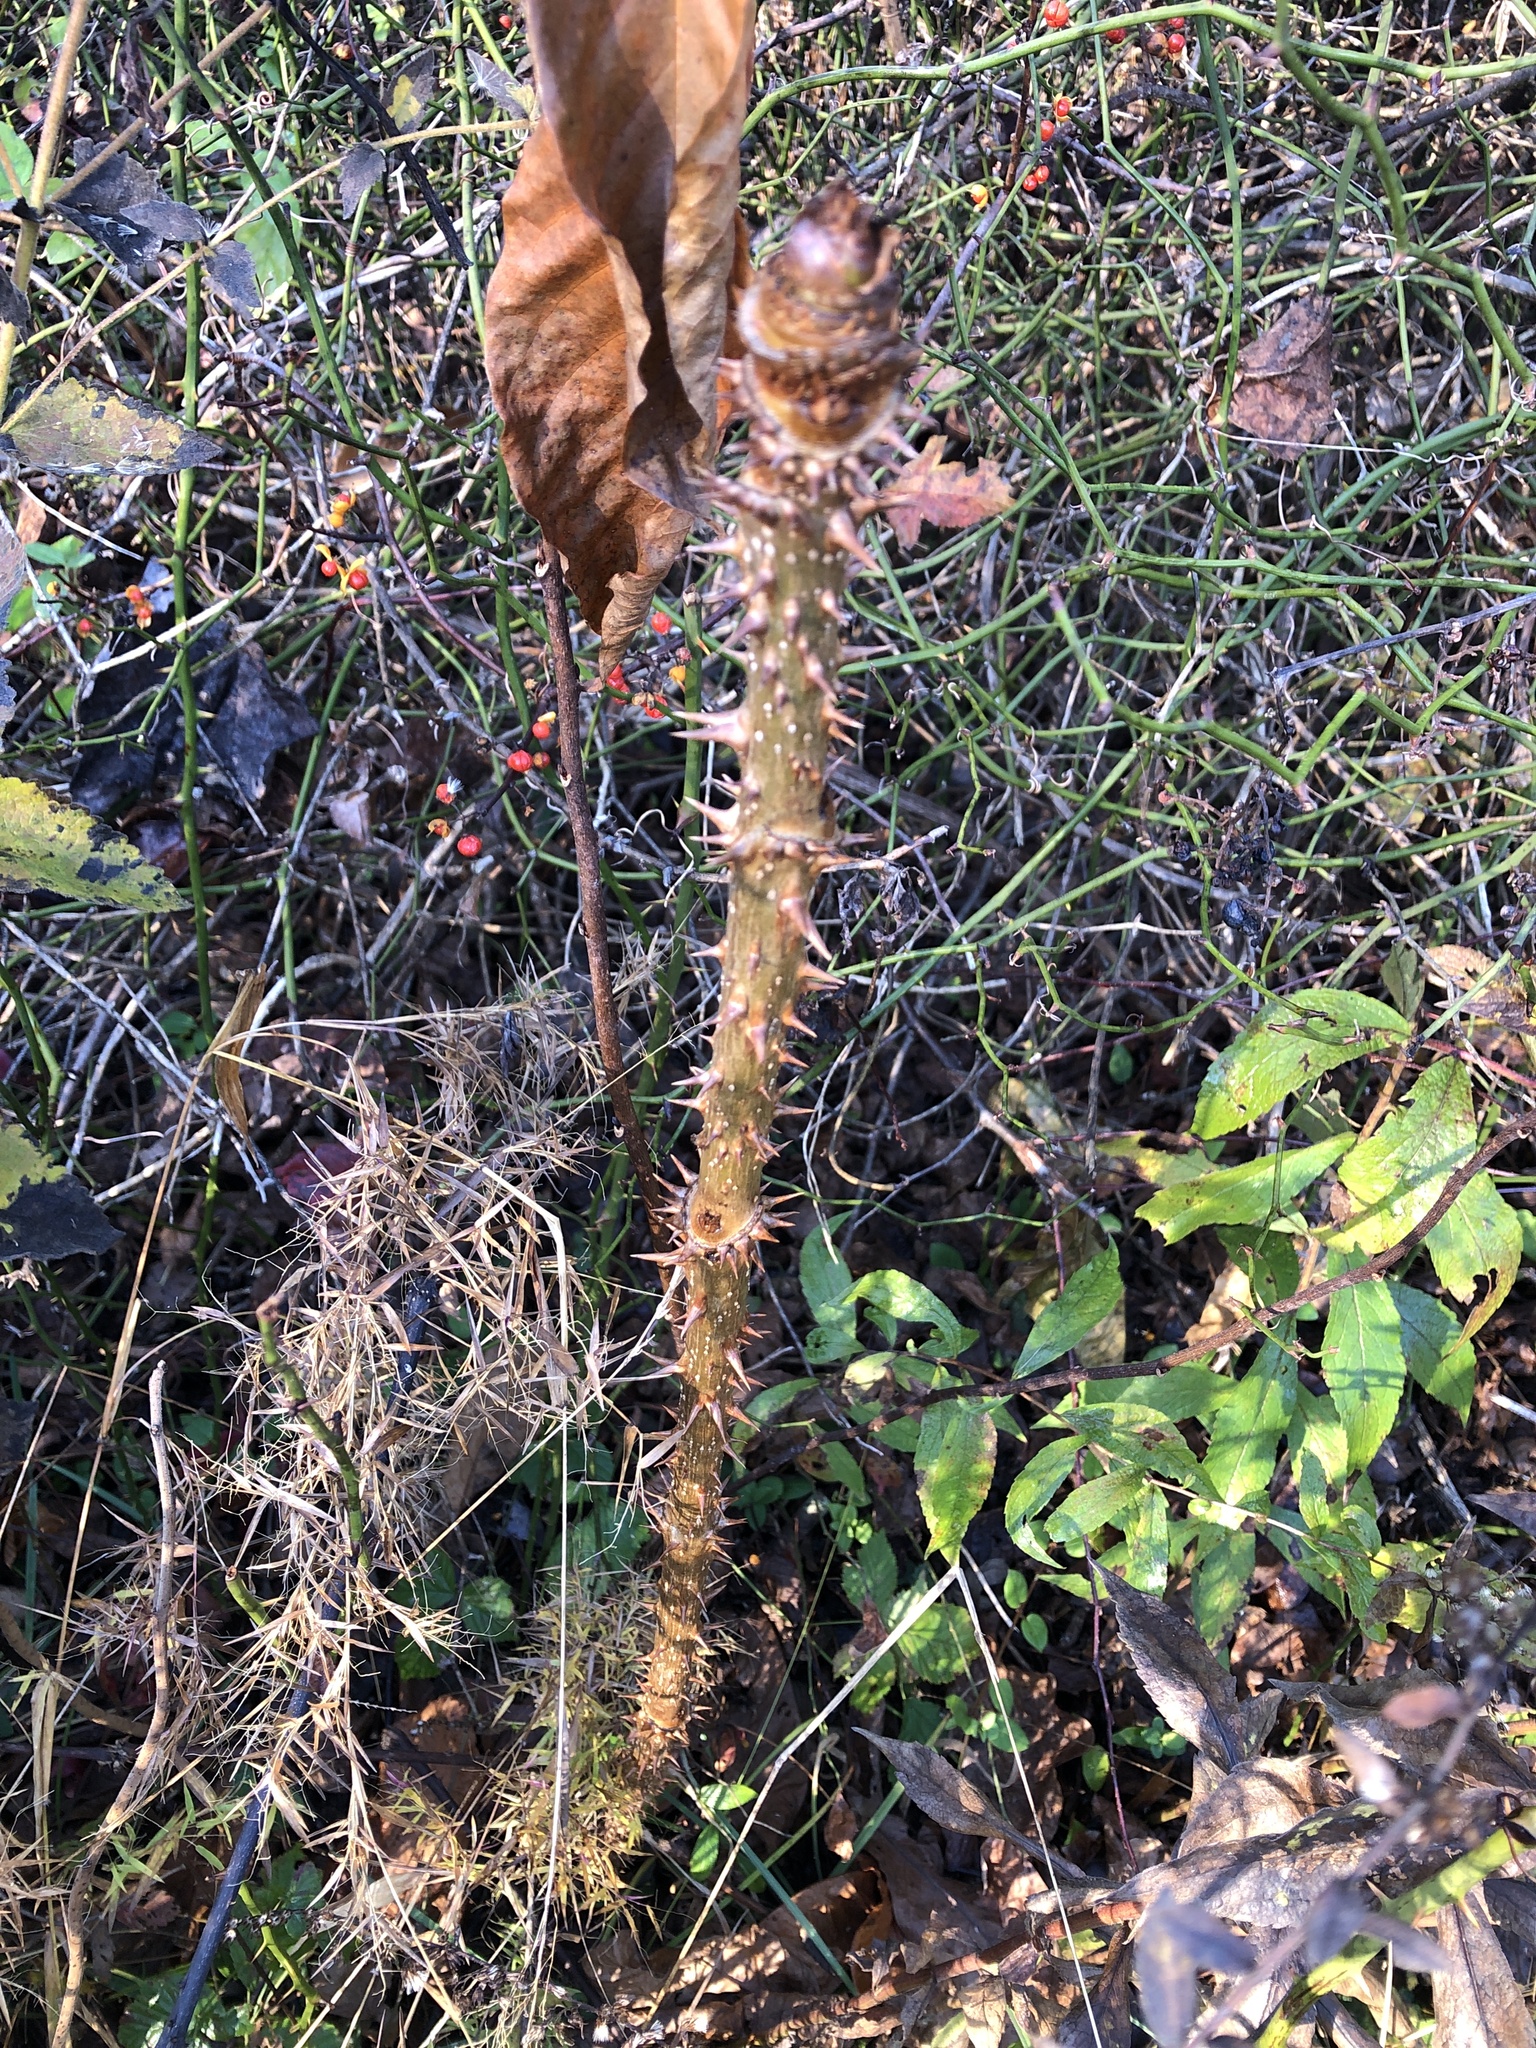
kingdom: Plantae
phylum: Tracheophyta
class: Magnoliopsida
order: Apiales
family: Araliaceae
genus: Aralia
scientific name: Aralia
